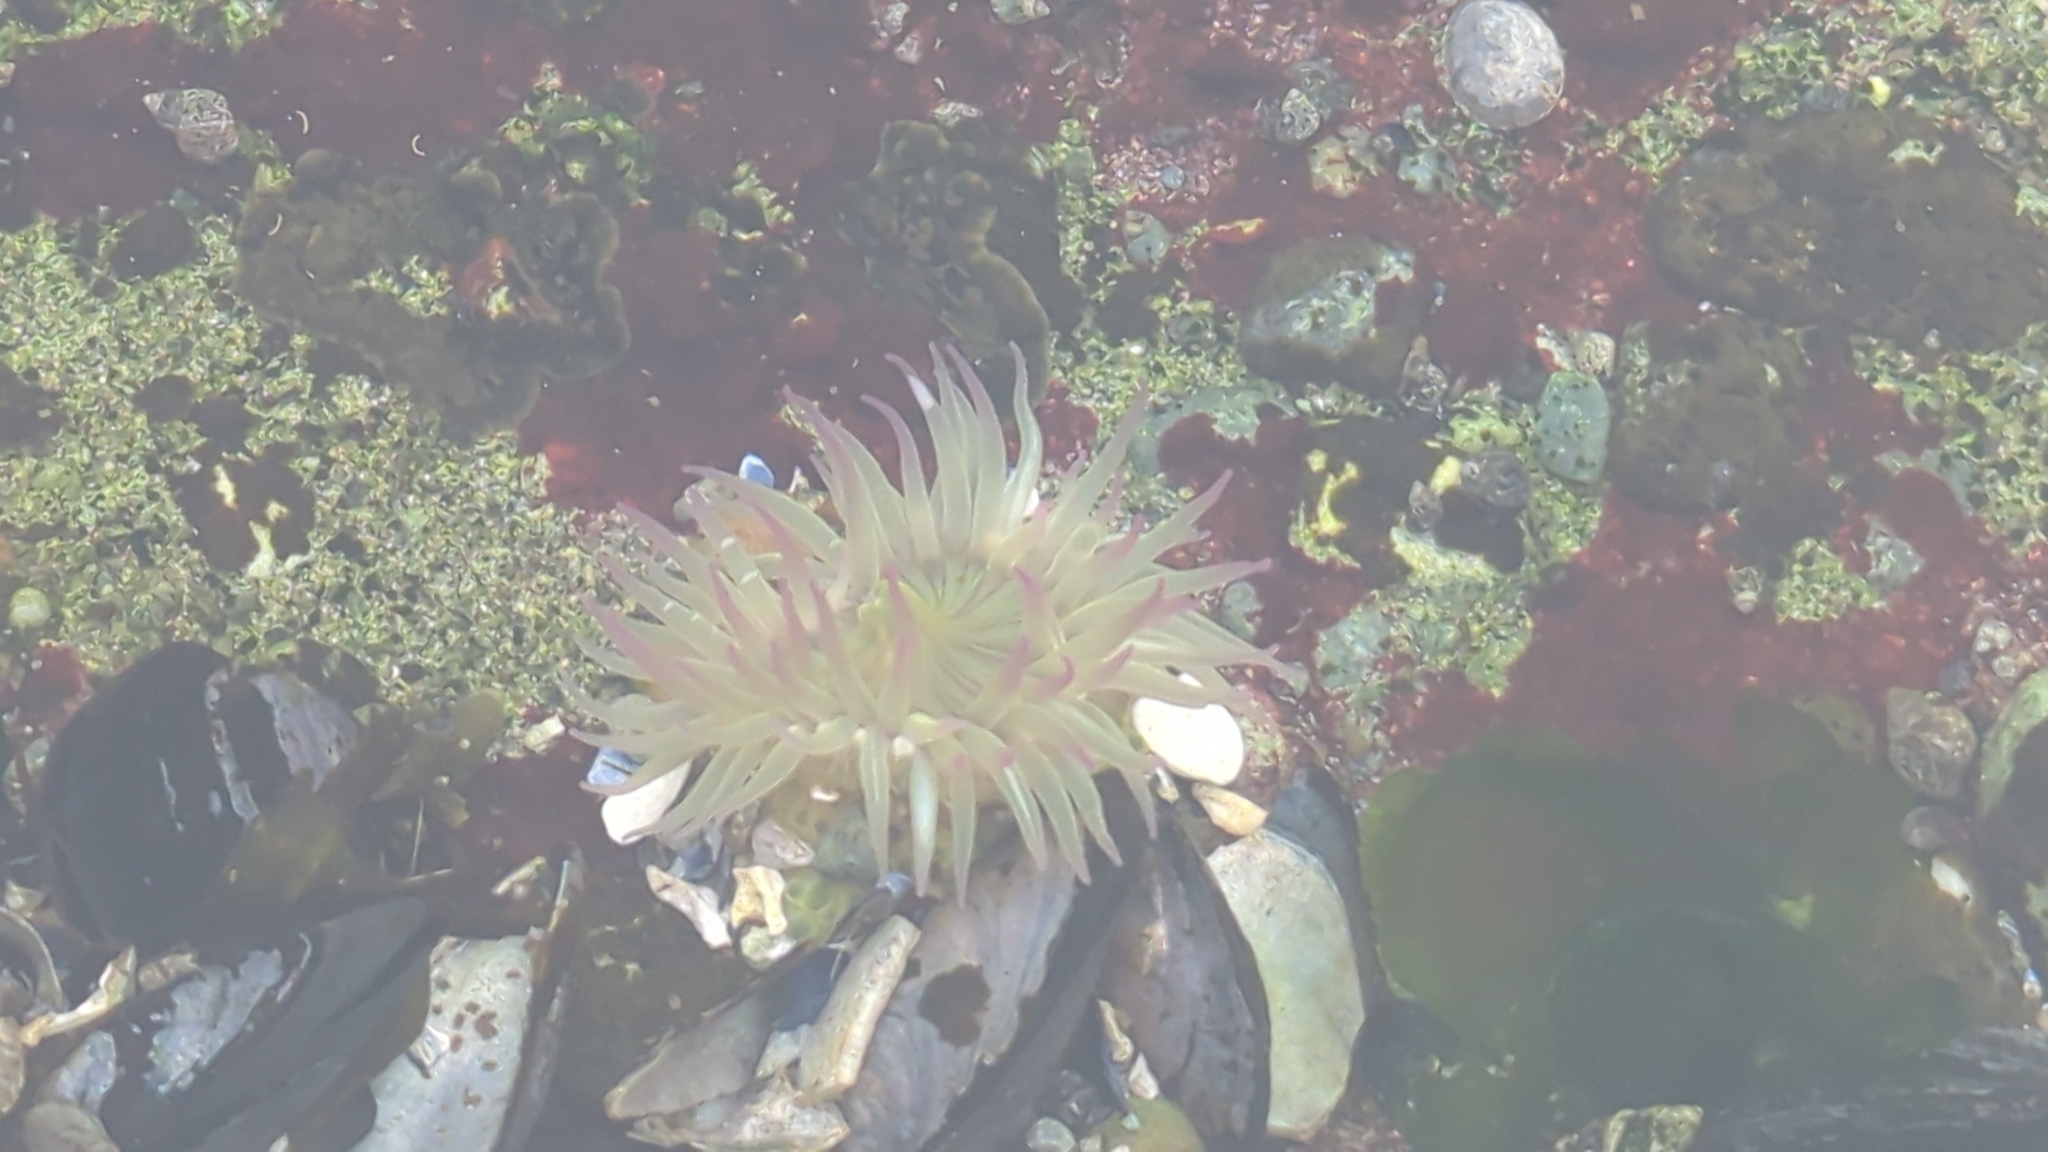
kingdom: Animalia
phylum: Cnidaria
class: Anthozoa
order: Actiniaria
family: Actiniidae
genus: Anthopleura
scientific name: Anthopleura elegantissima
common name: Clonal anemone
